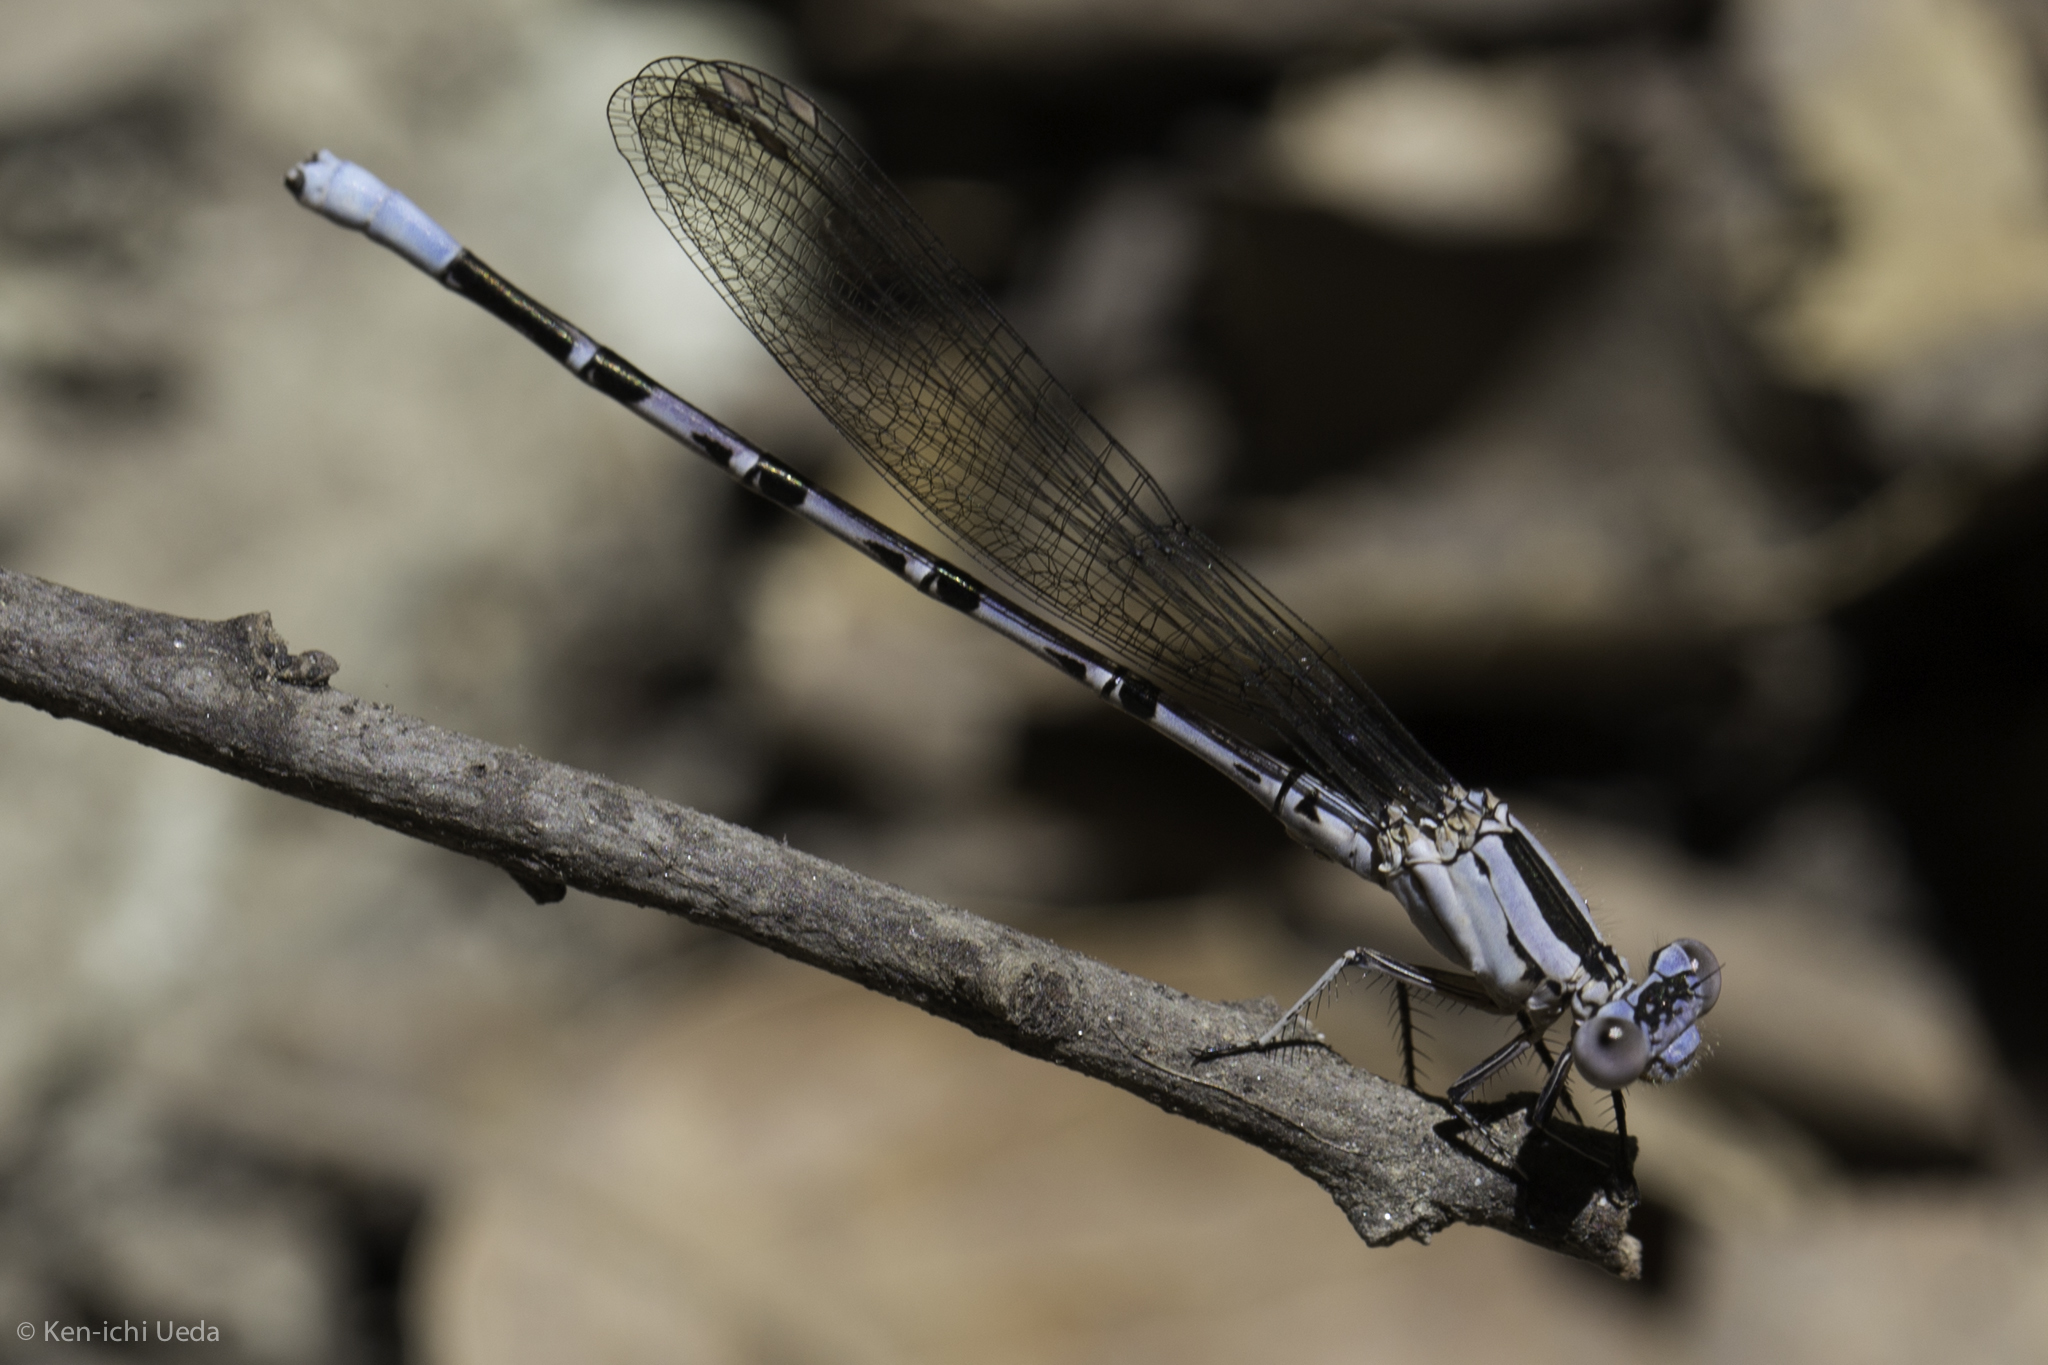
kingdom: Animalia
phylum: Arthropoda
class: Insecta
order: Odonata
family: Coenagrionidae
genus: Argia
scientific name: Argia vivida
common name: Vivid dancer
